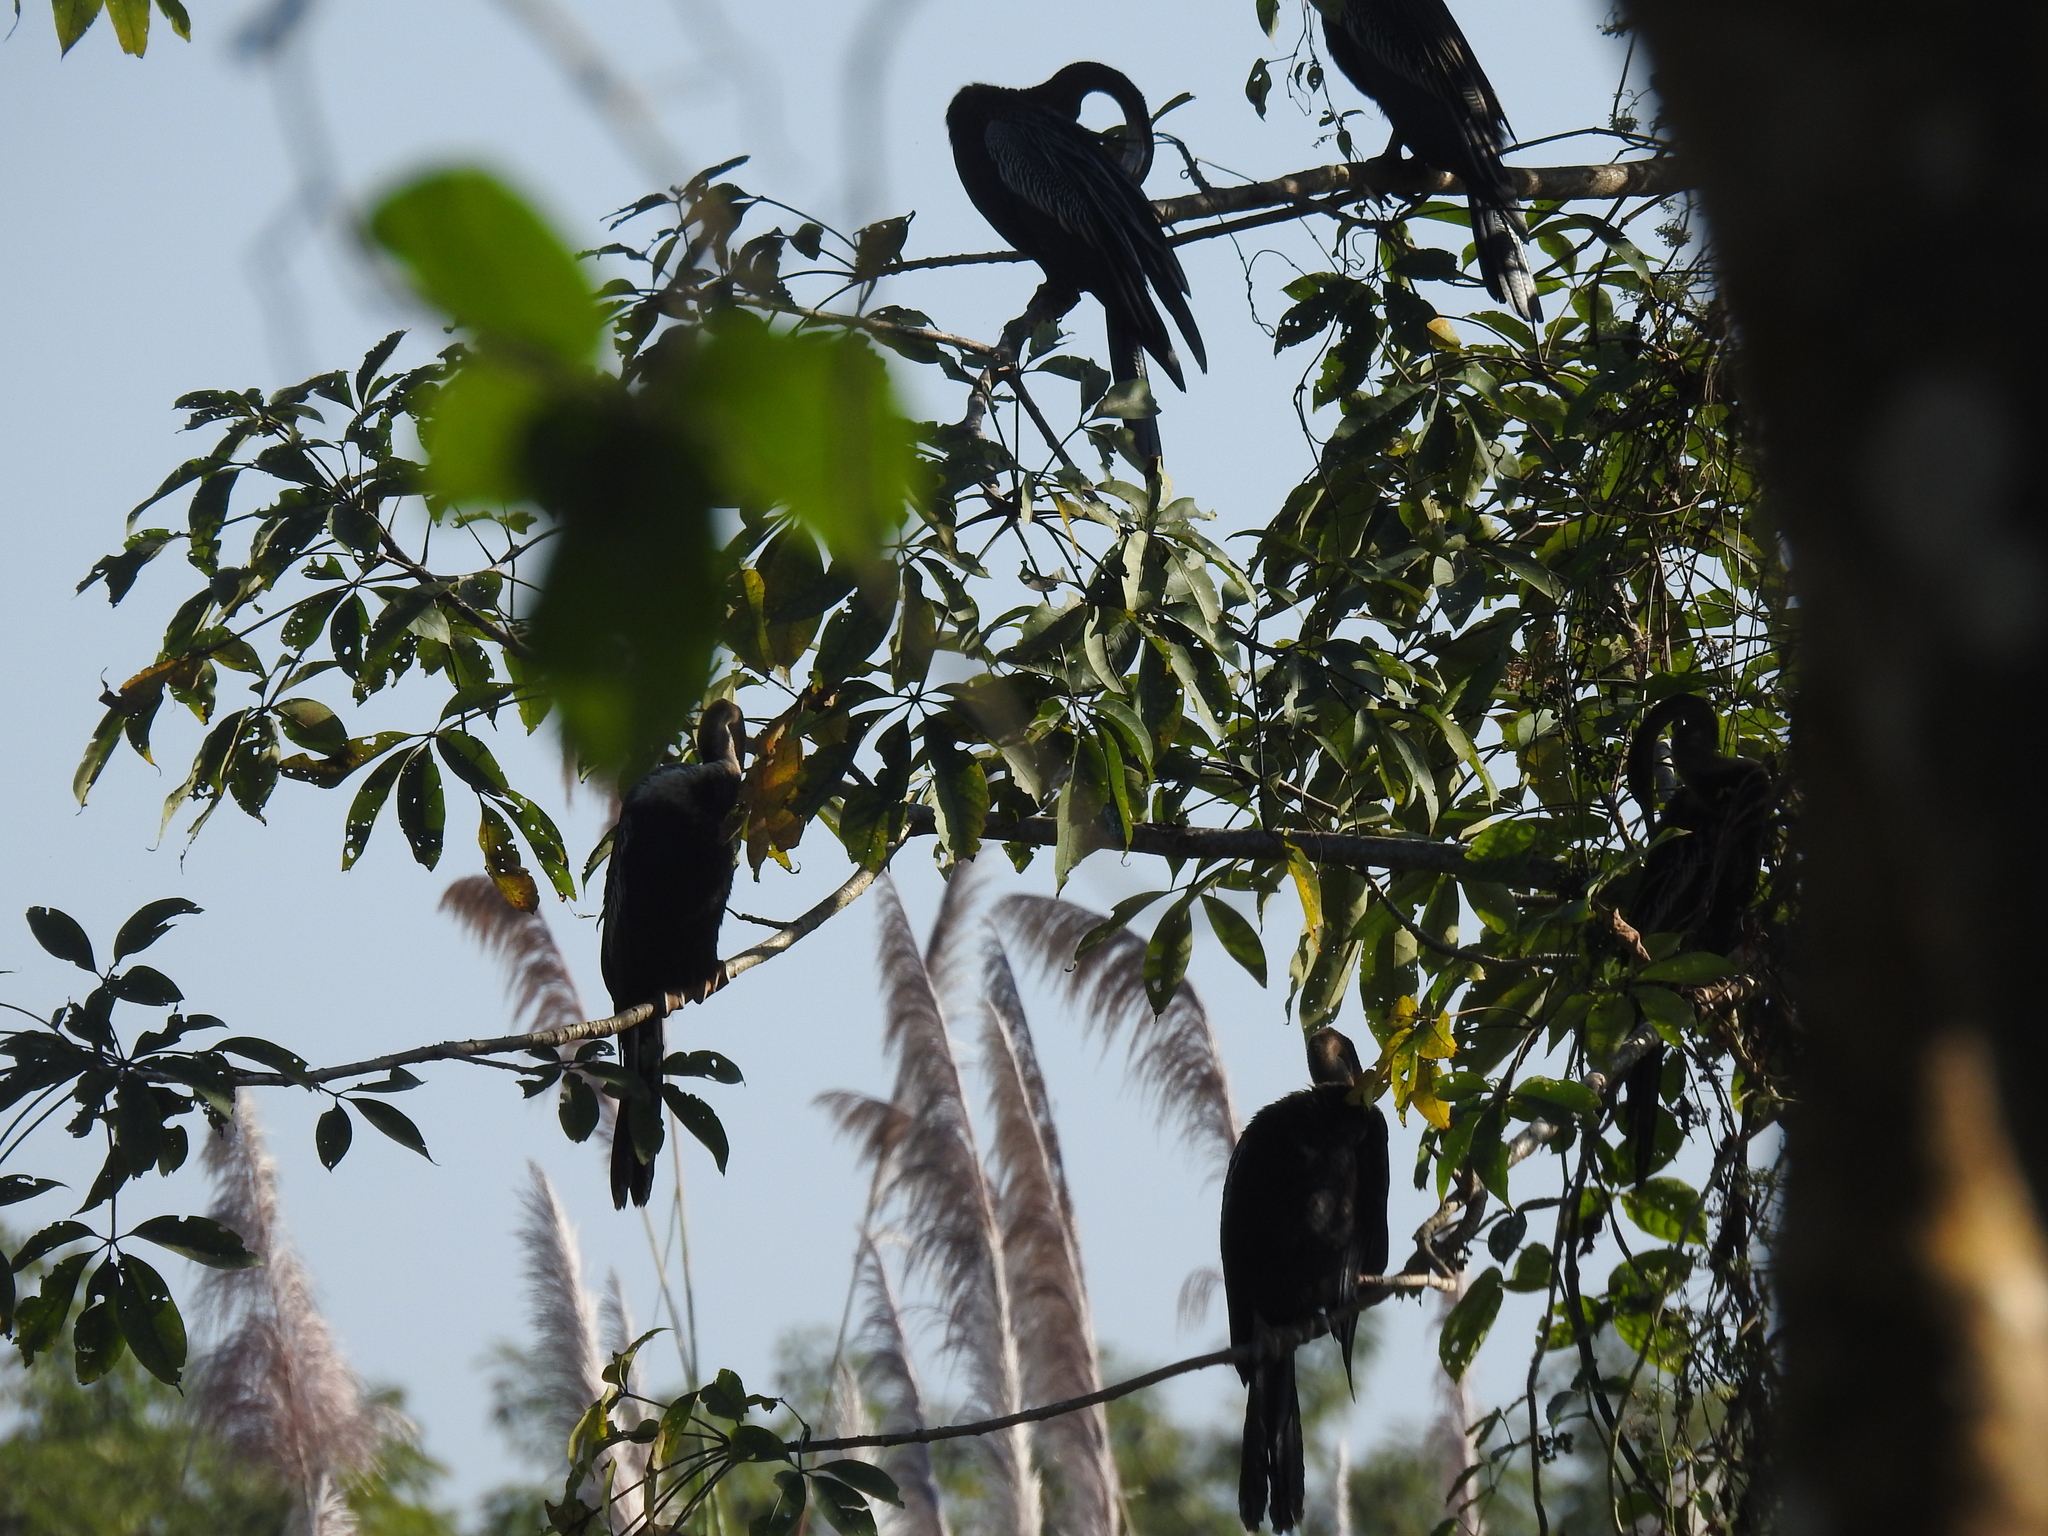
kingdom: Animalia
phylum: Chordata
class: Aves
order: Suliformes
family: Anhingidae
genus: Anhinga
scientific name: Anhinga melanogaster
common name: Oriental darter
